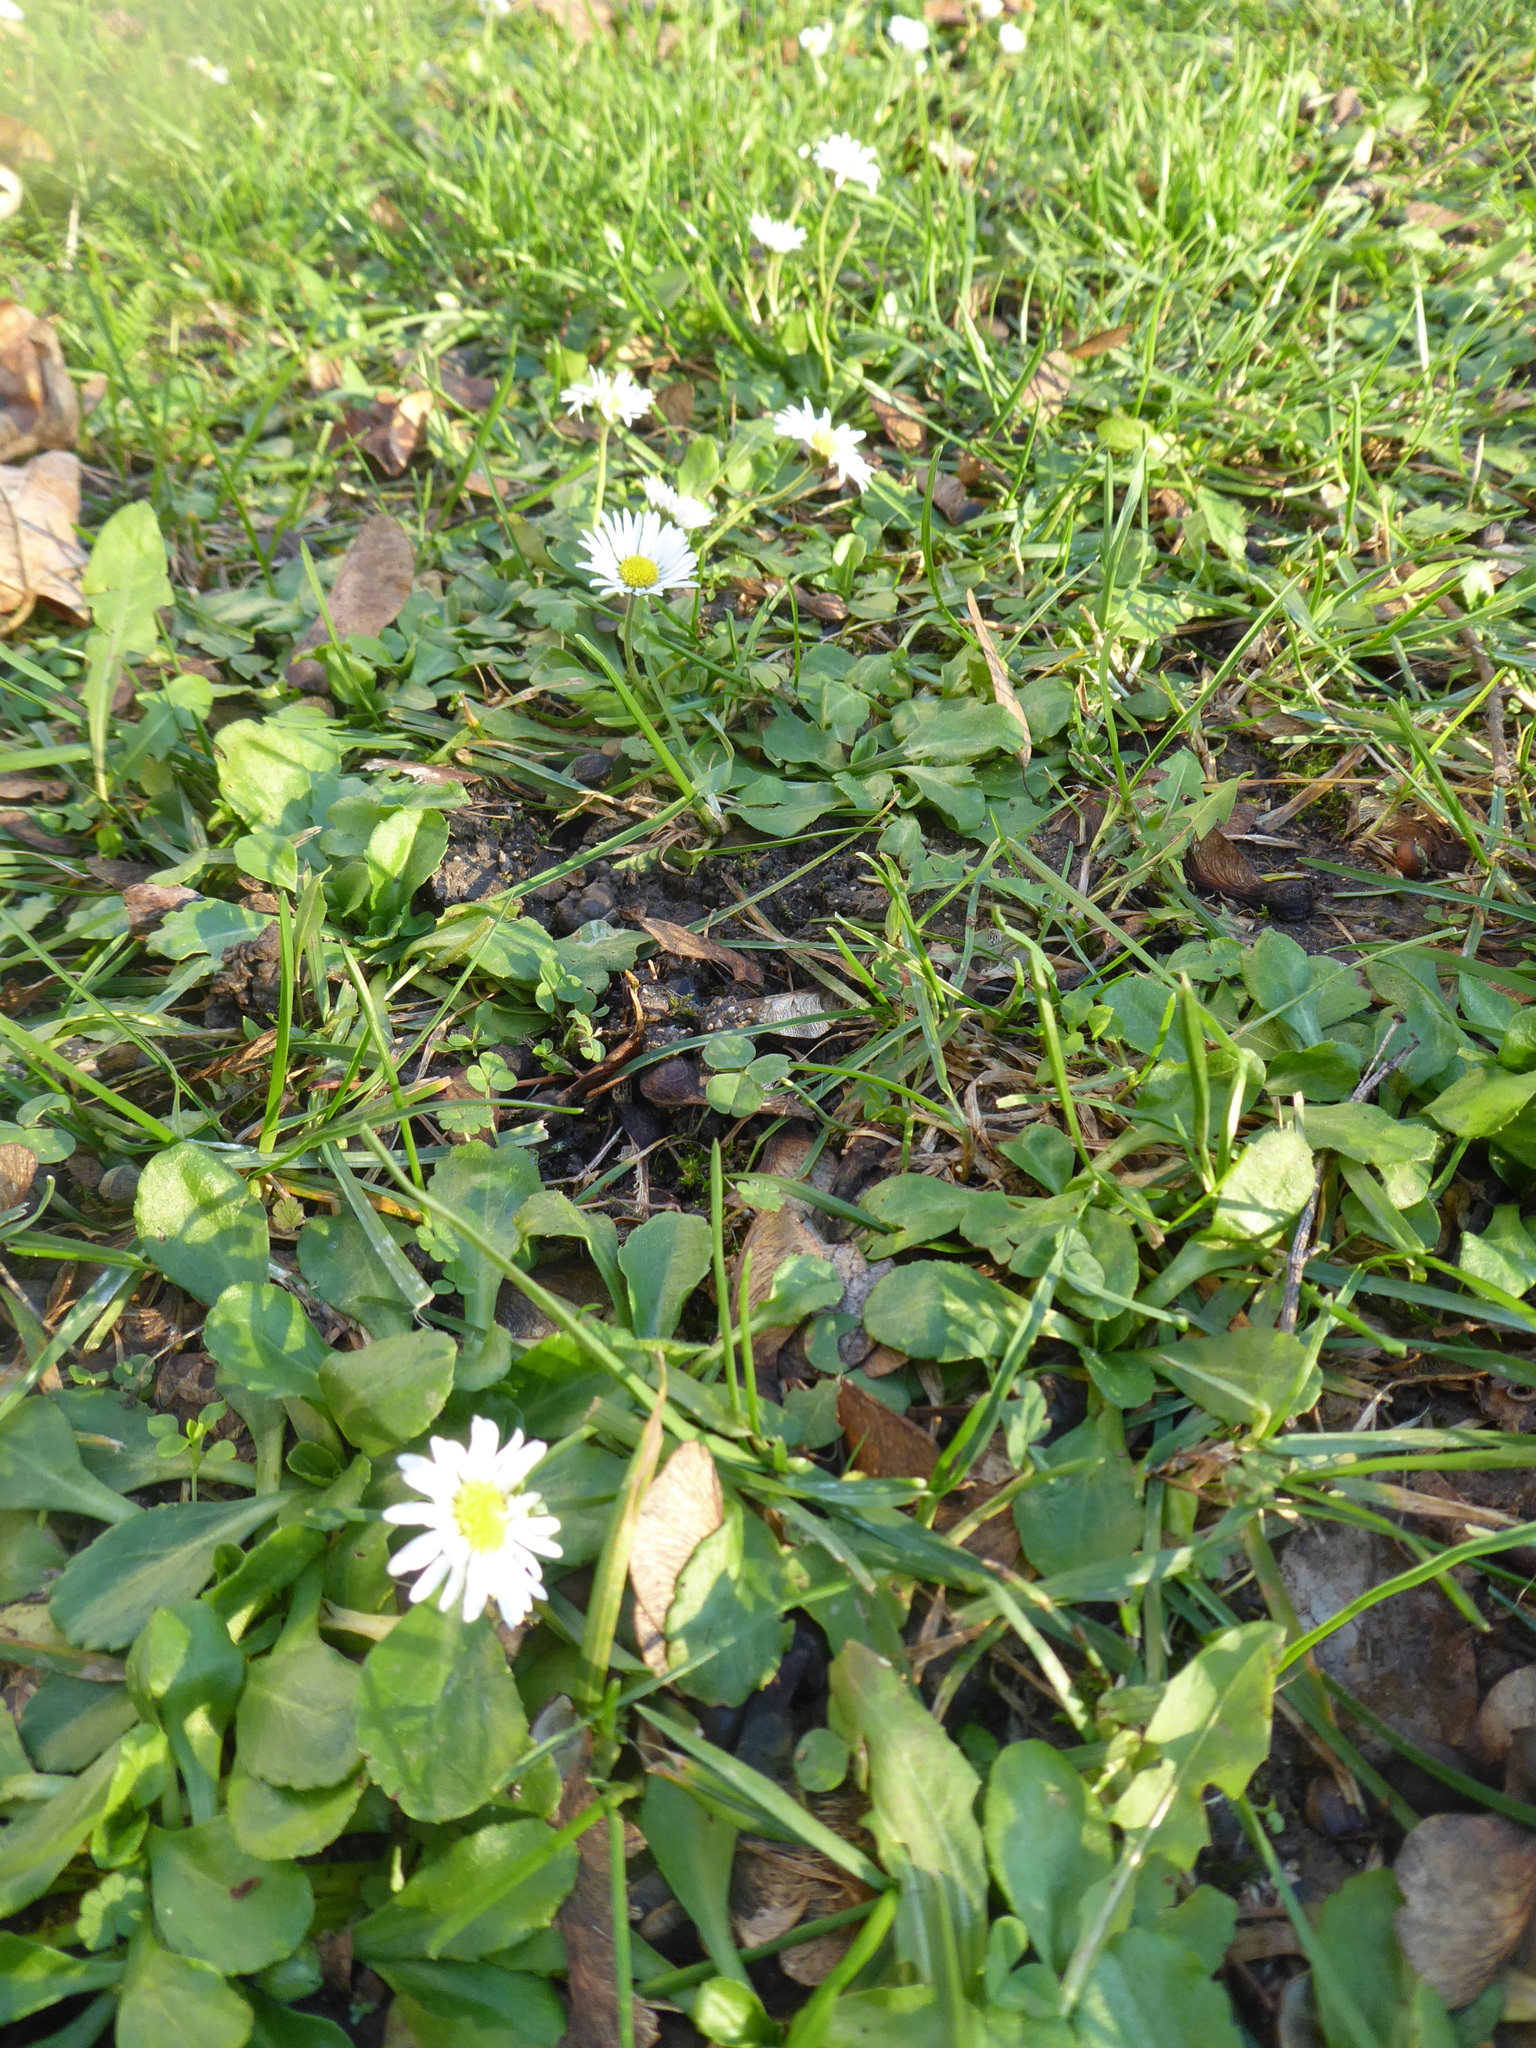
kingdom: Plantae
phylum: Tracheophyta
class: Magnoliopsida
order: Asterales
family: Asteraceae
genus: Bellis
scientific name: Bellis perennis
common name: Lawndaisy
